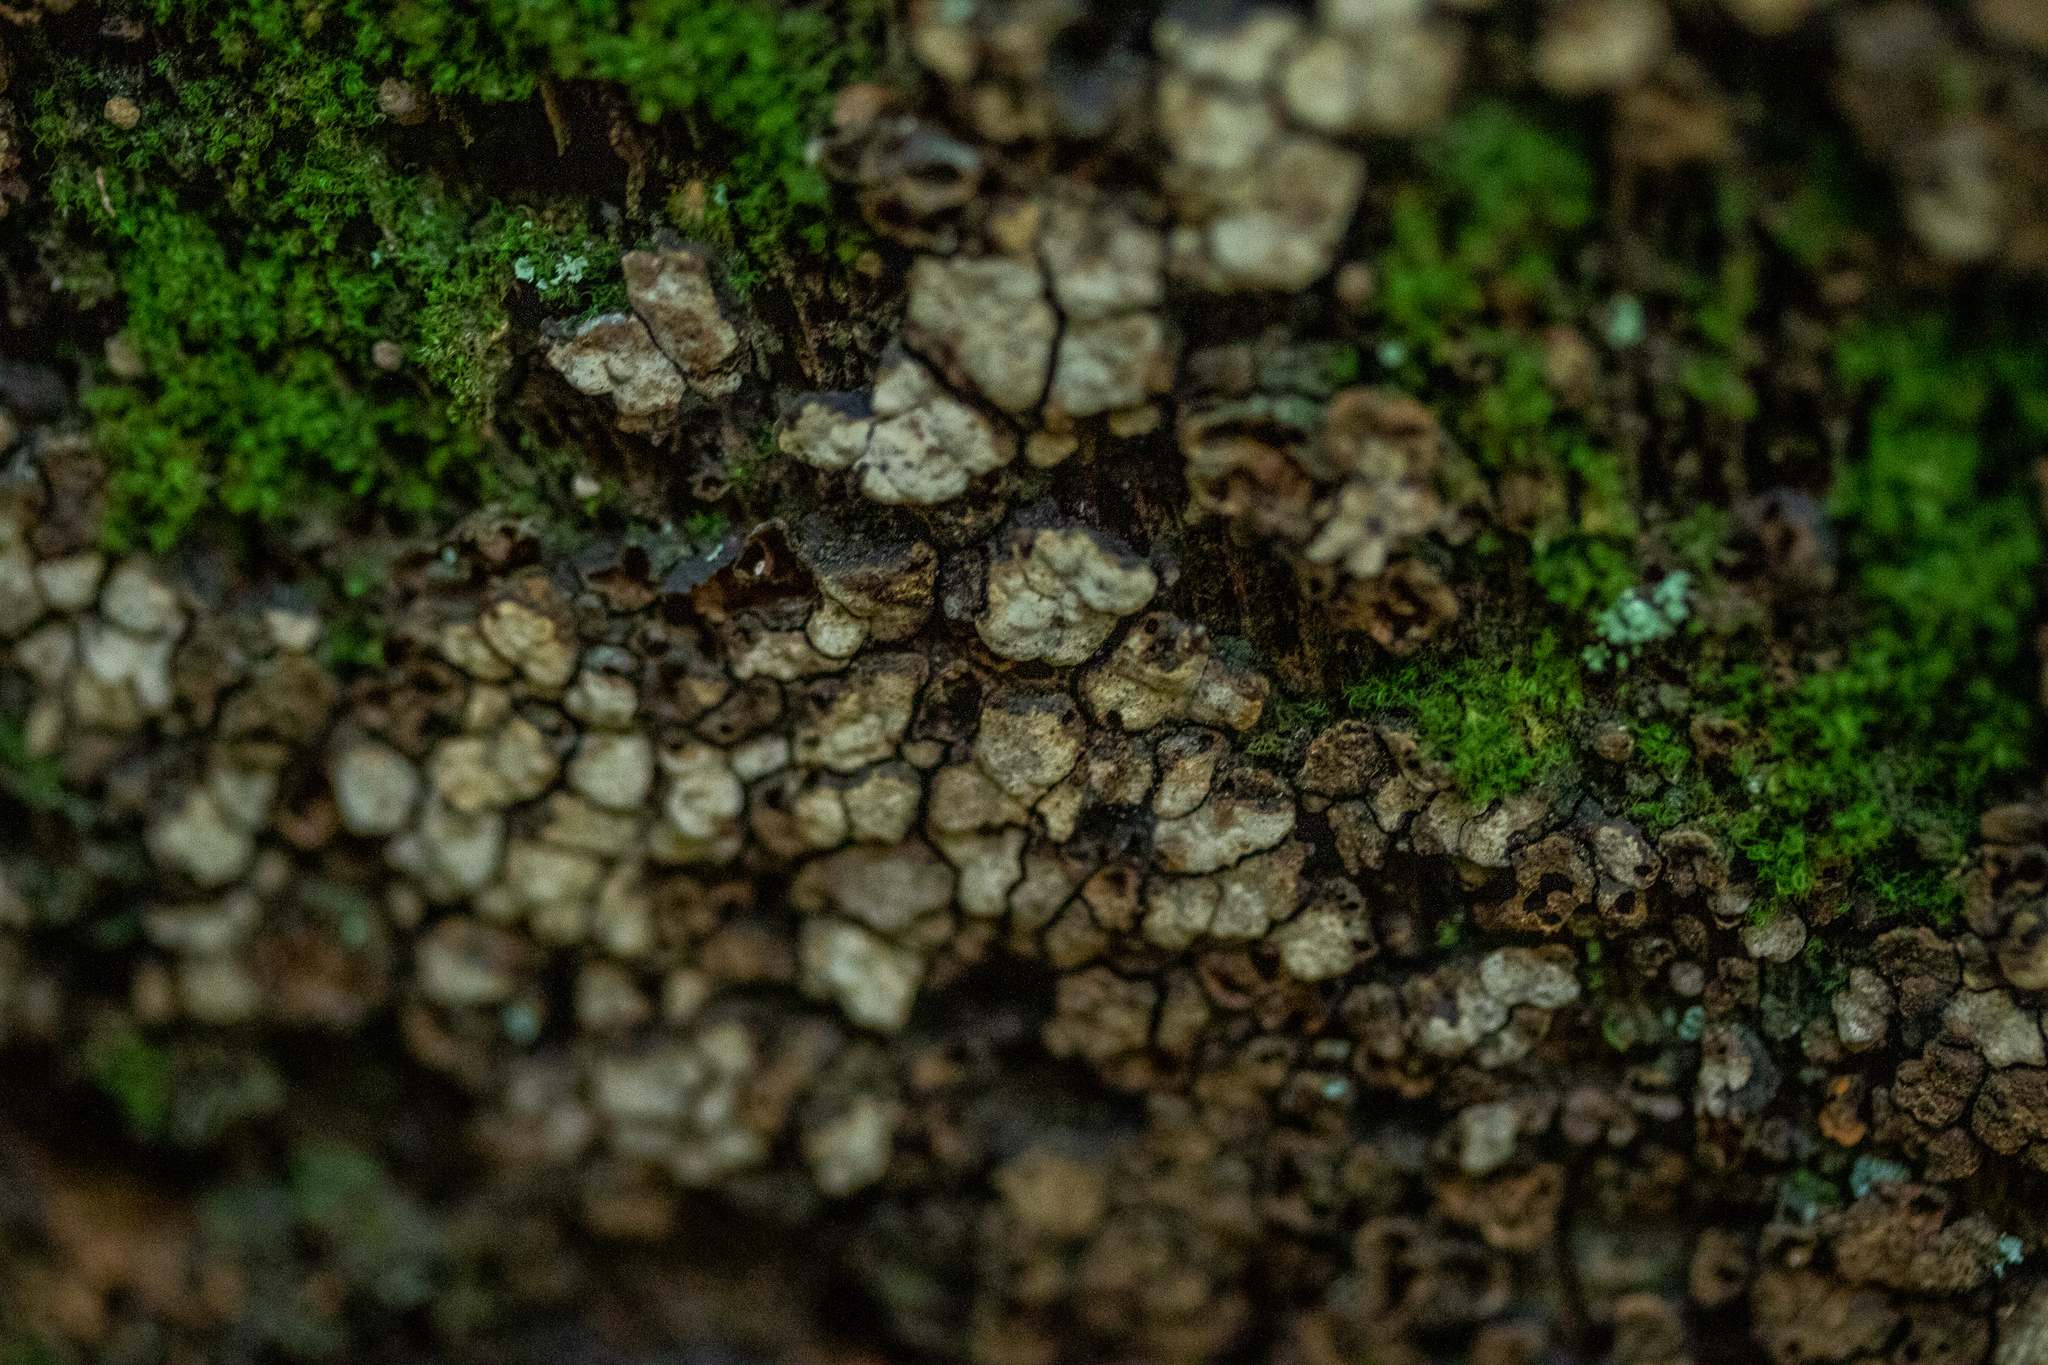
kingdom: Fungi
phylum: Basidiomycota
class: Agaricomycetes
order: Russulales
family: Stereaceae
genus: Xylobolus
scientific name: Xylobolus frustulatus
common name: Ceramic parchment
